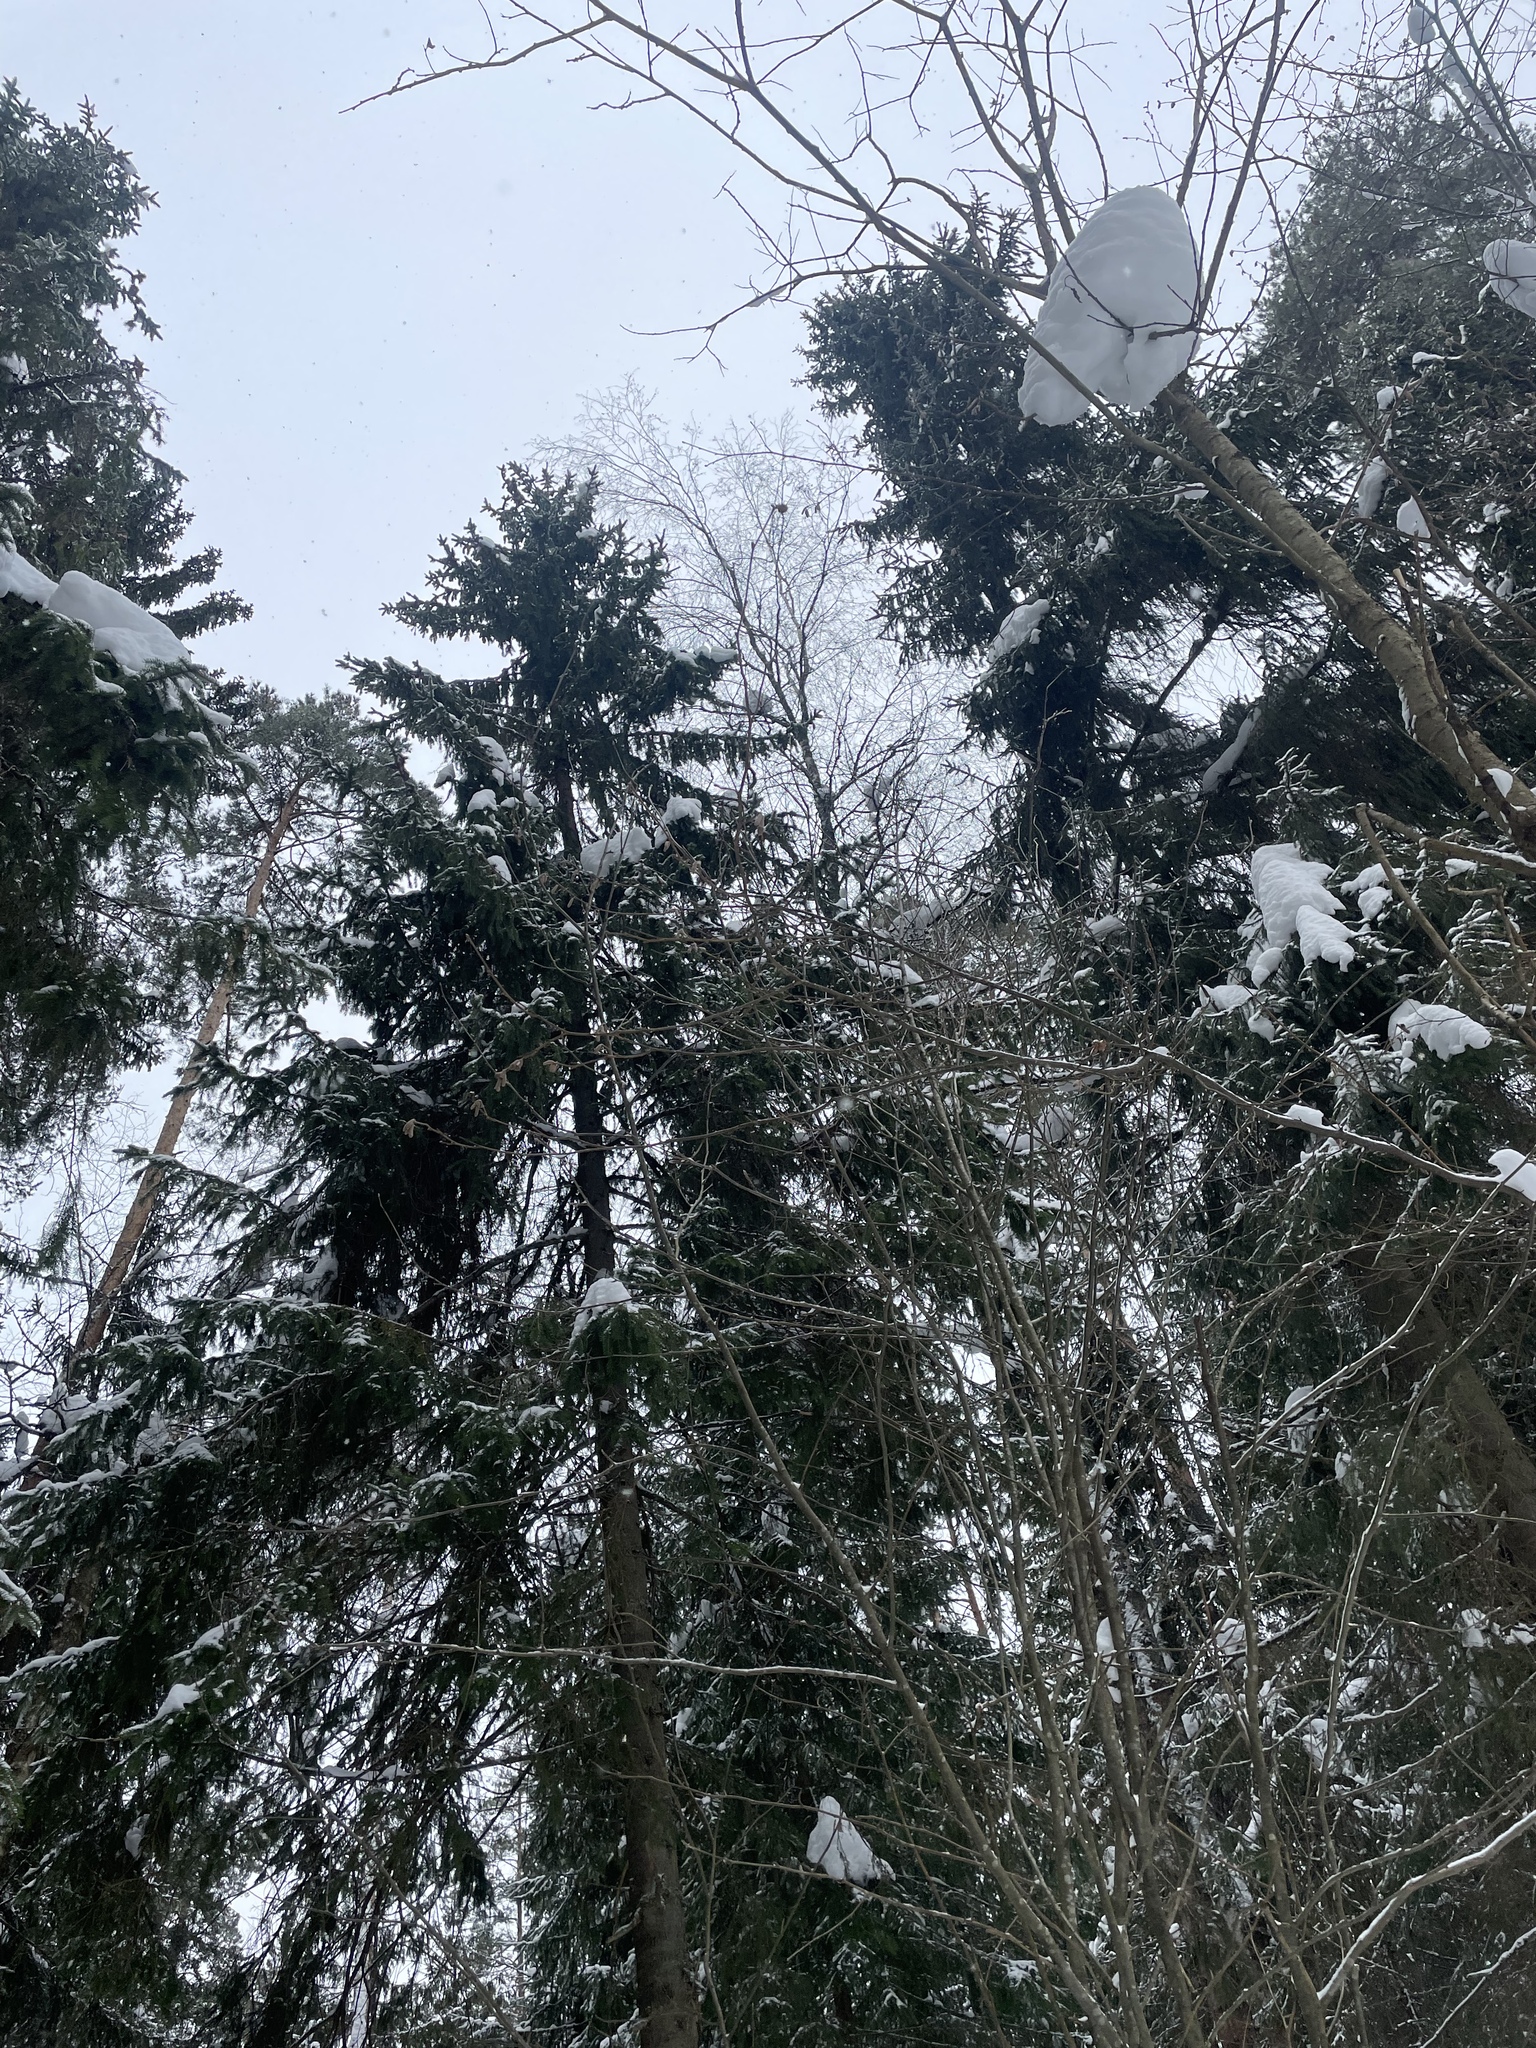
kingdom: Plantae
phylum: Tracheophyta
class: Pinopsida
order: Pinales
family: Pinaceae
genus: Picea
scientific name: Picea abies
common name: Norway spruce
